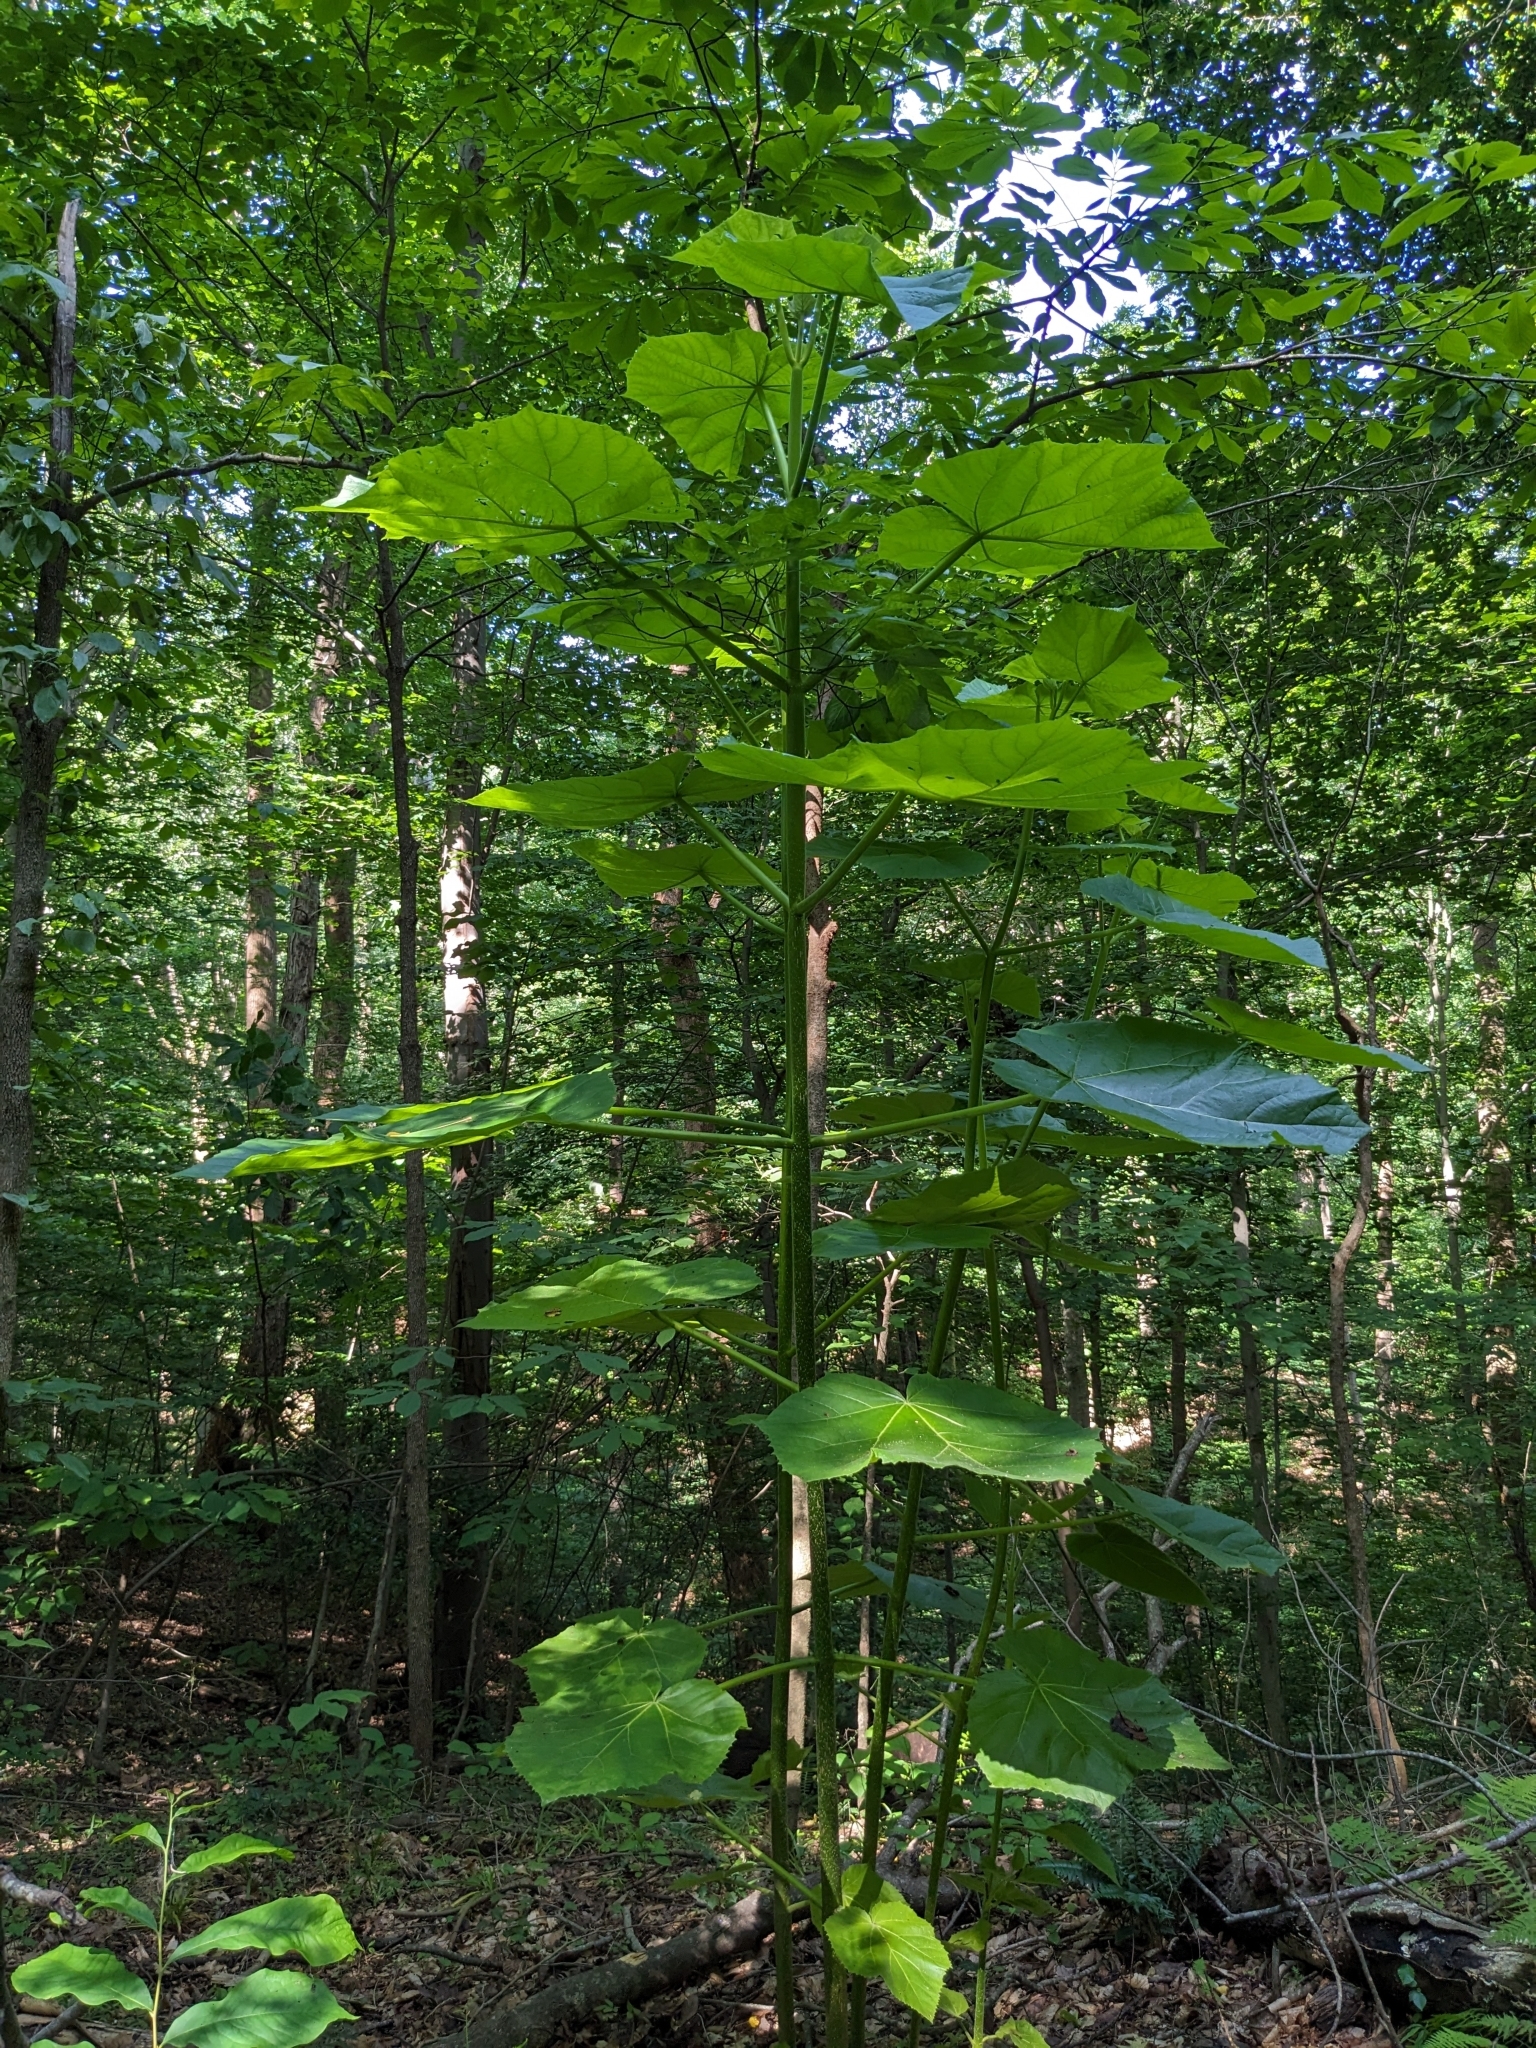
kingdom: Plantae
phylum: Tracheophyta
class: Magnoliopsida
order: Lamiales
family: Paulowniaceae
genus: Paulownia
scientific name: Paulownia tomentosa
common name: Foxglove-tree
